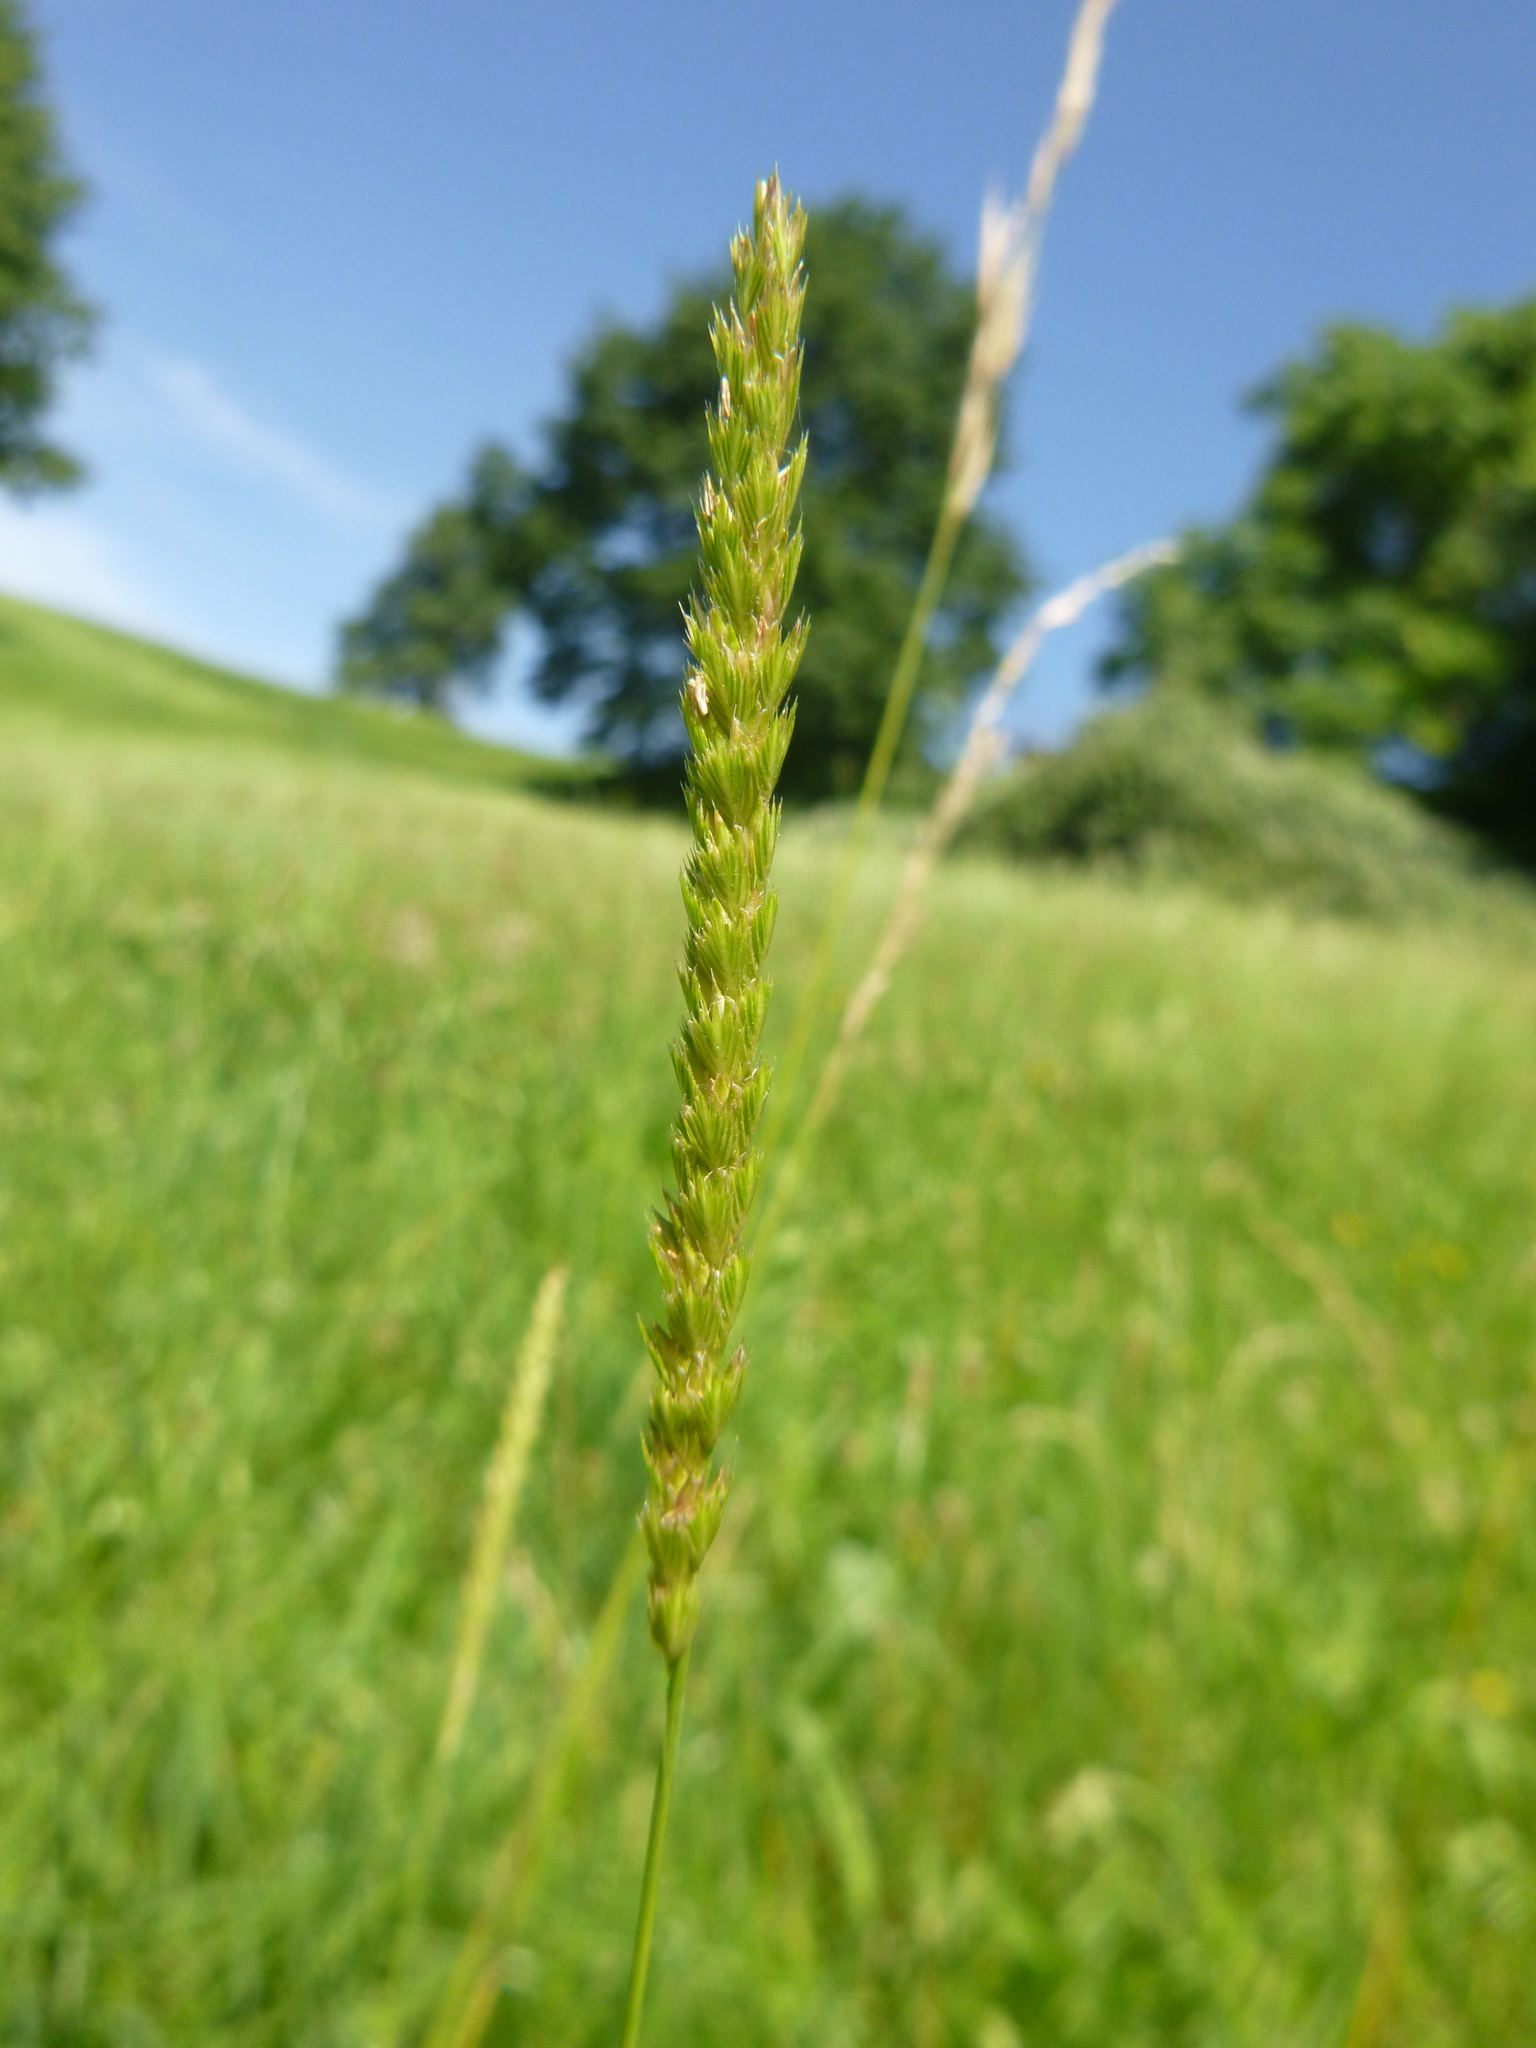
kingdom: Plantae
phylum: Tracheophyta
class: Liliopsida
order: Poales
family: Poaceae
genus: Cynosurus
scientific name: Cynosurus cristatus
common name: Crested dog's-tail
